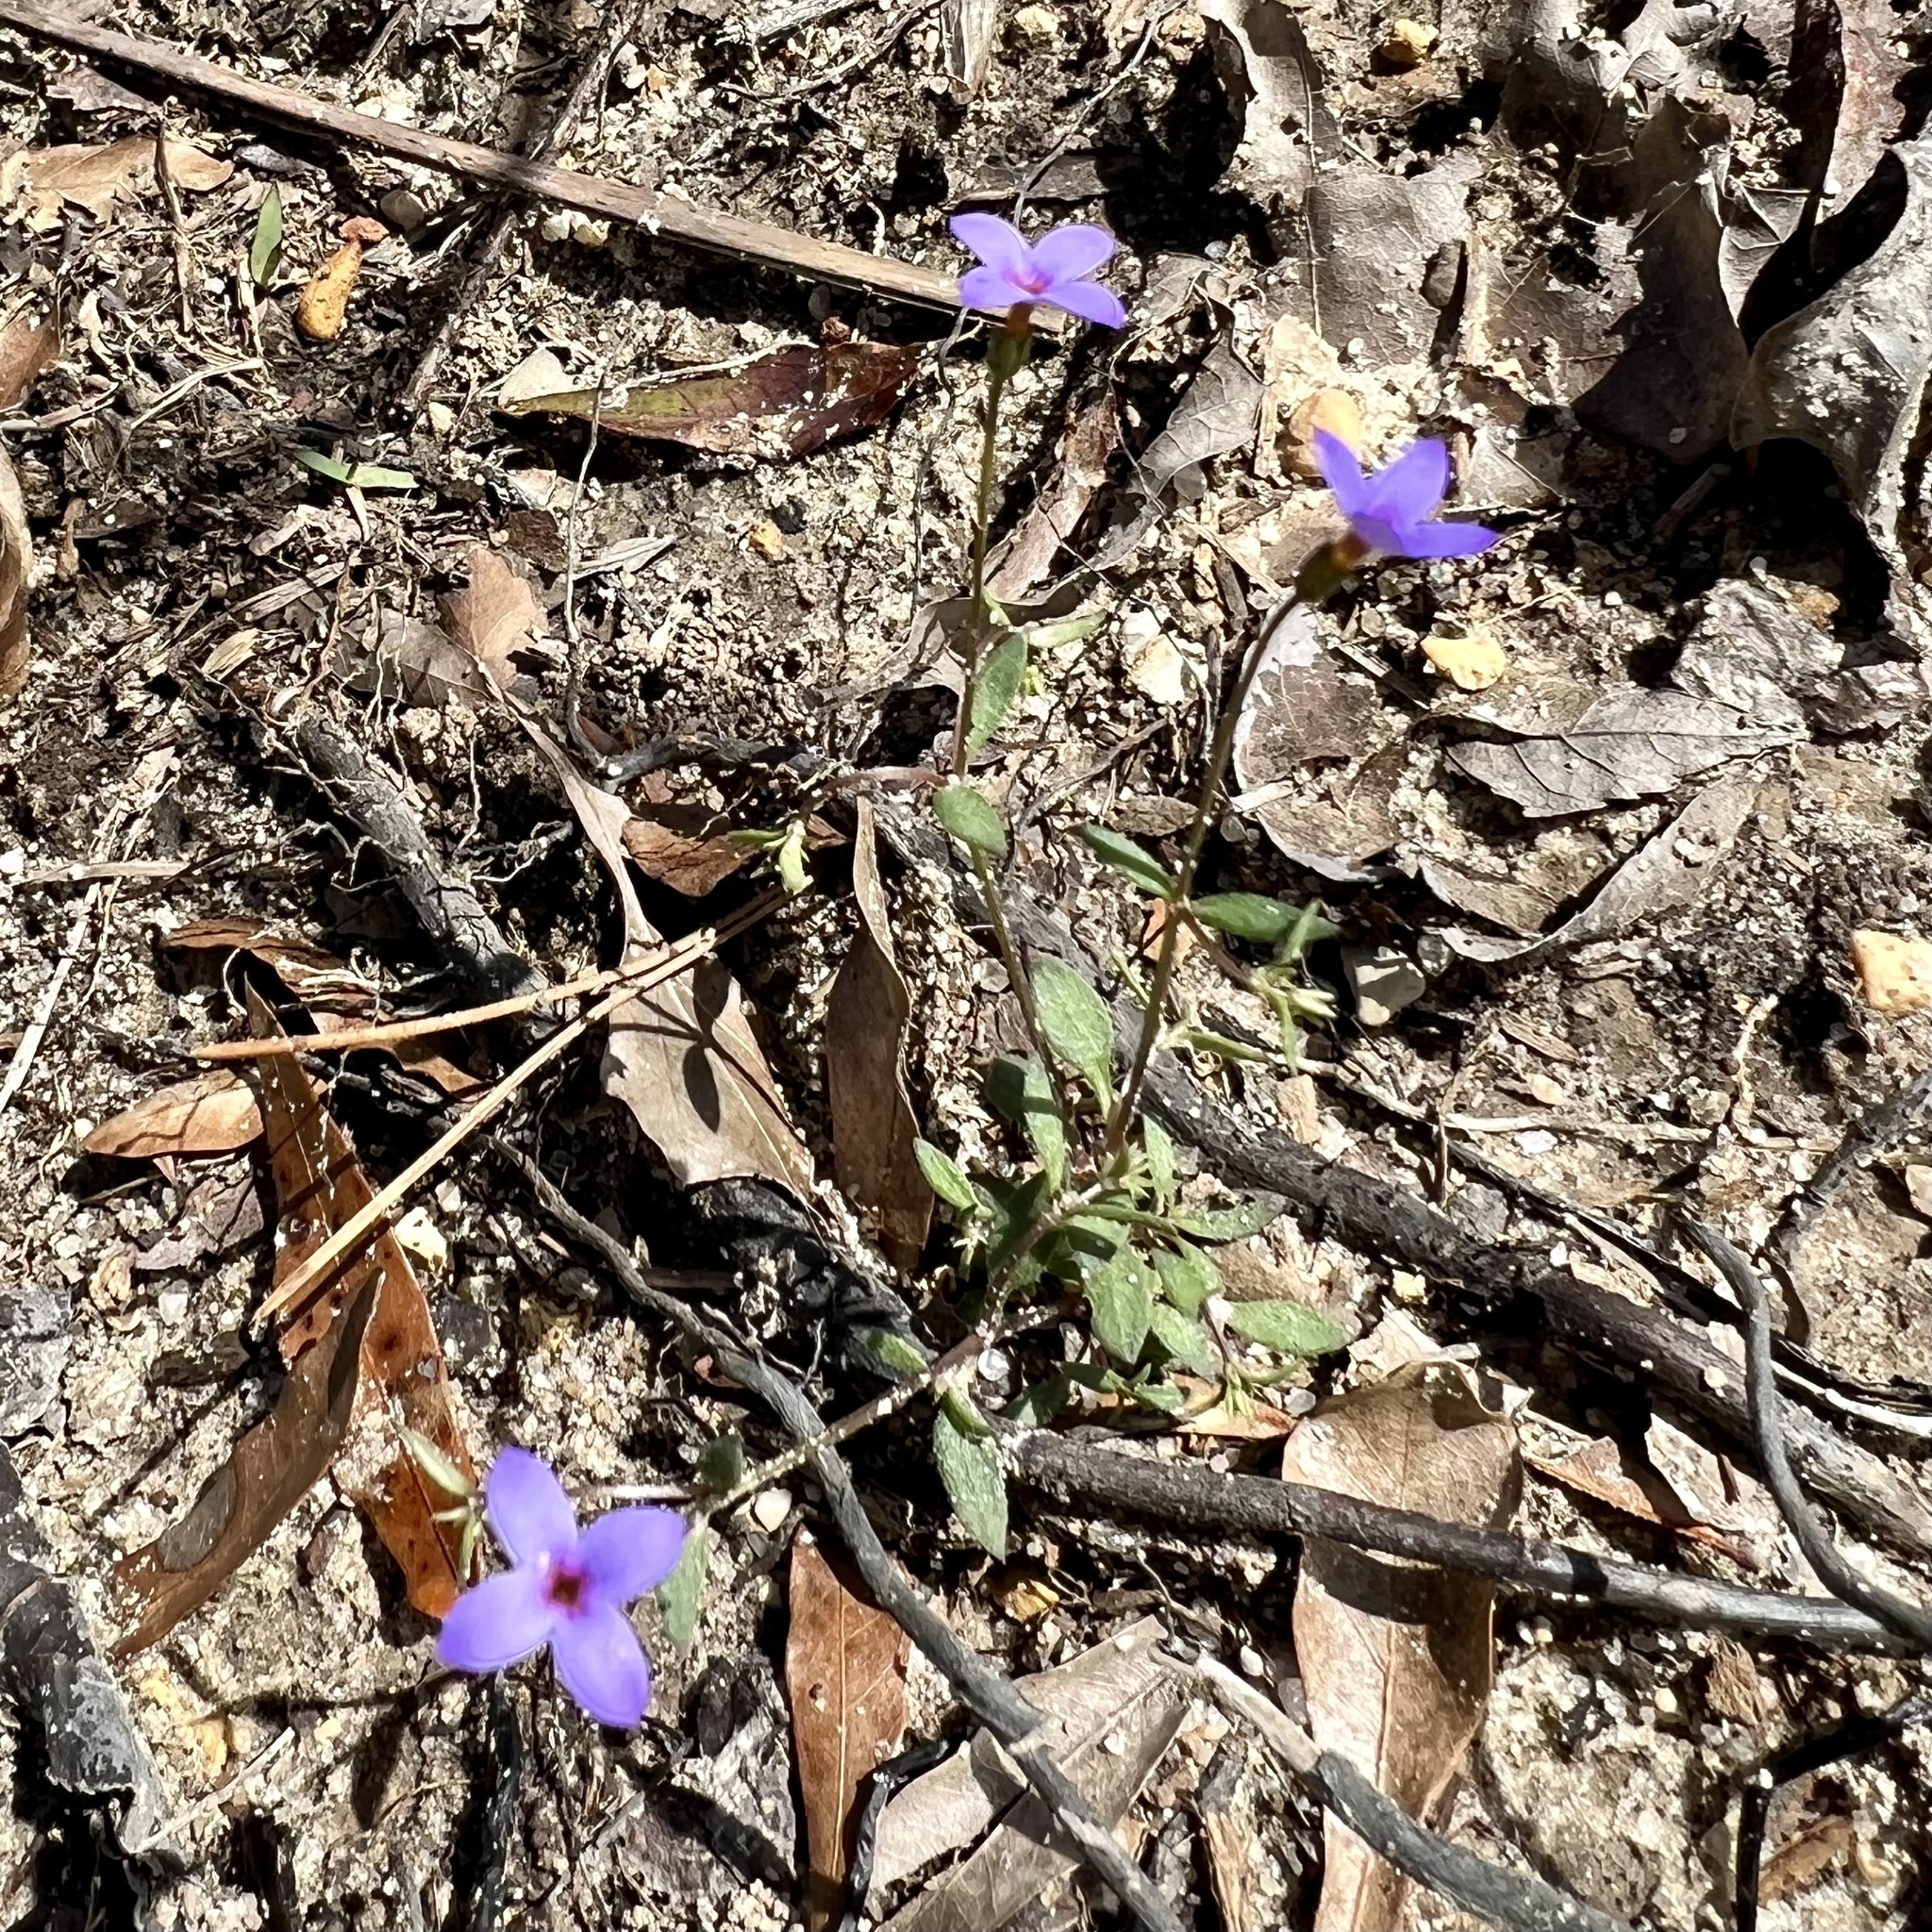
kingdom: Plantae
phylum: Tracheophyta
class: Magnoliopsida
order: Gentianales
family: Rubiaceae
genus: Houstonia
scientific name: Houstonia pusilla
